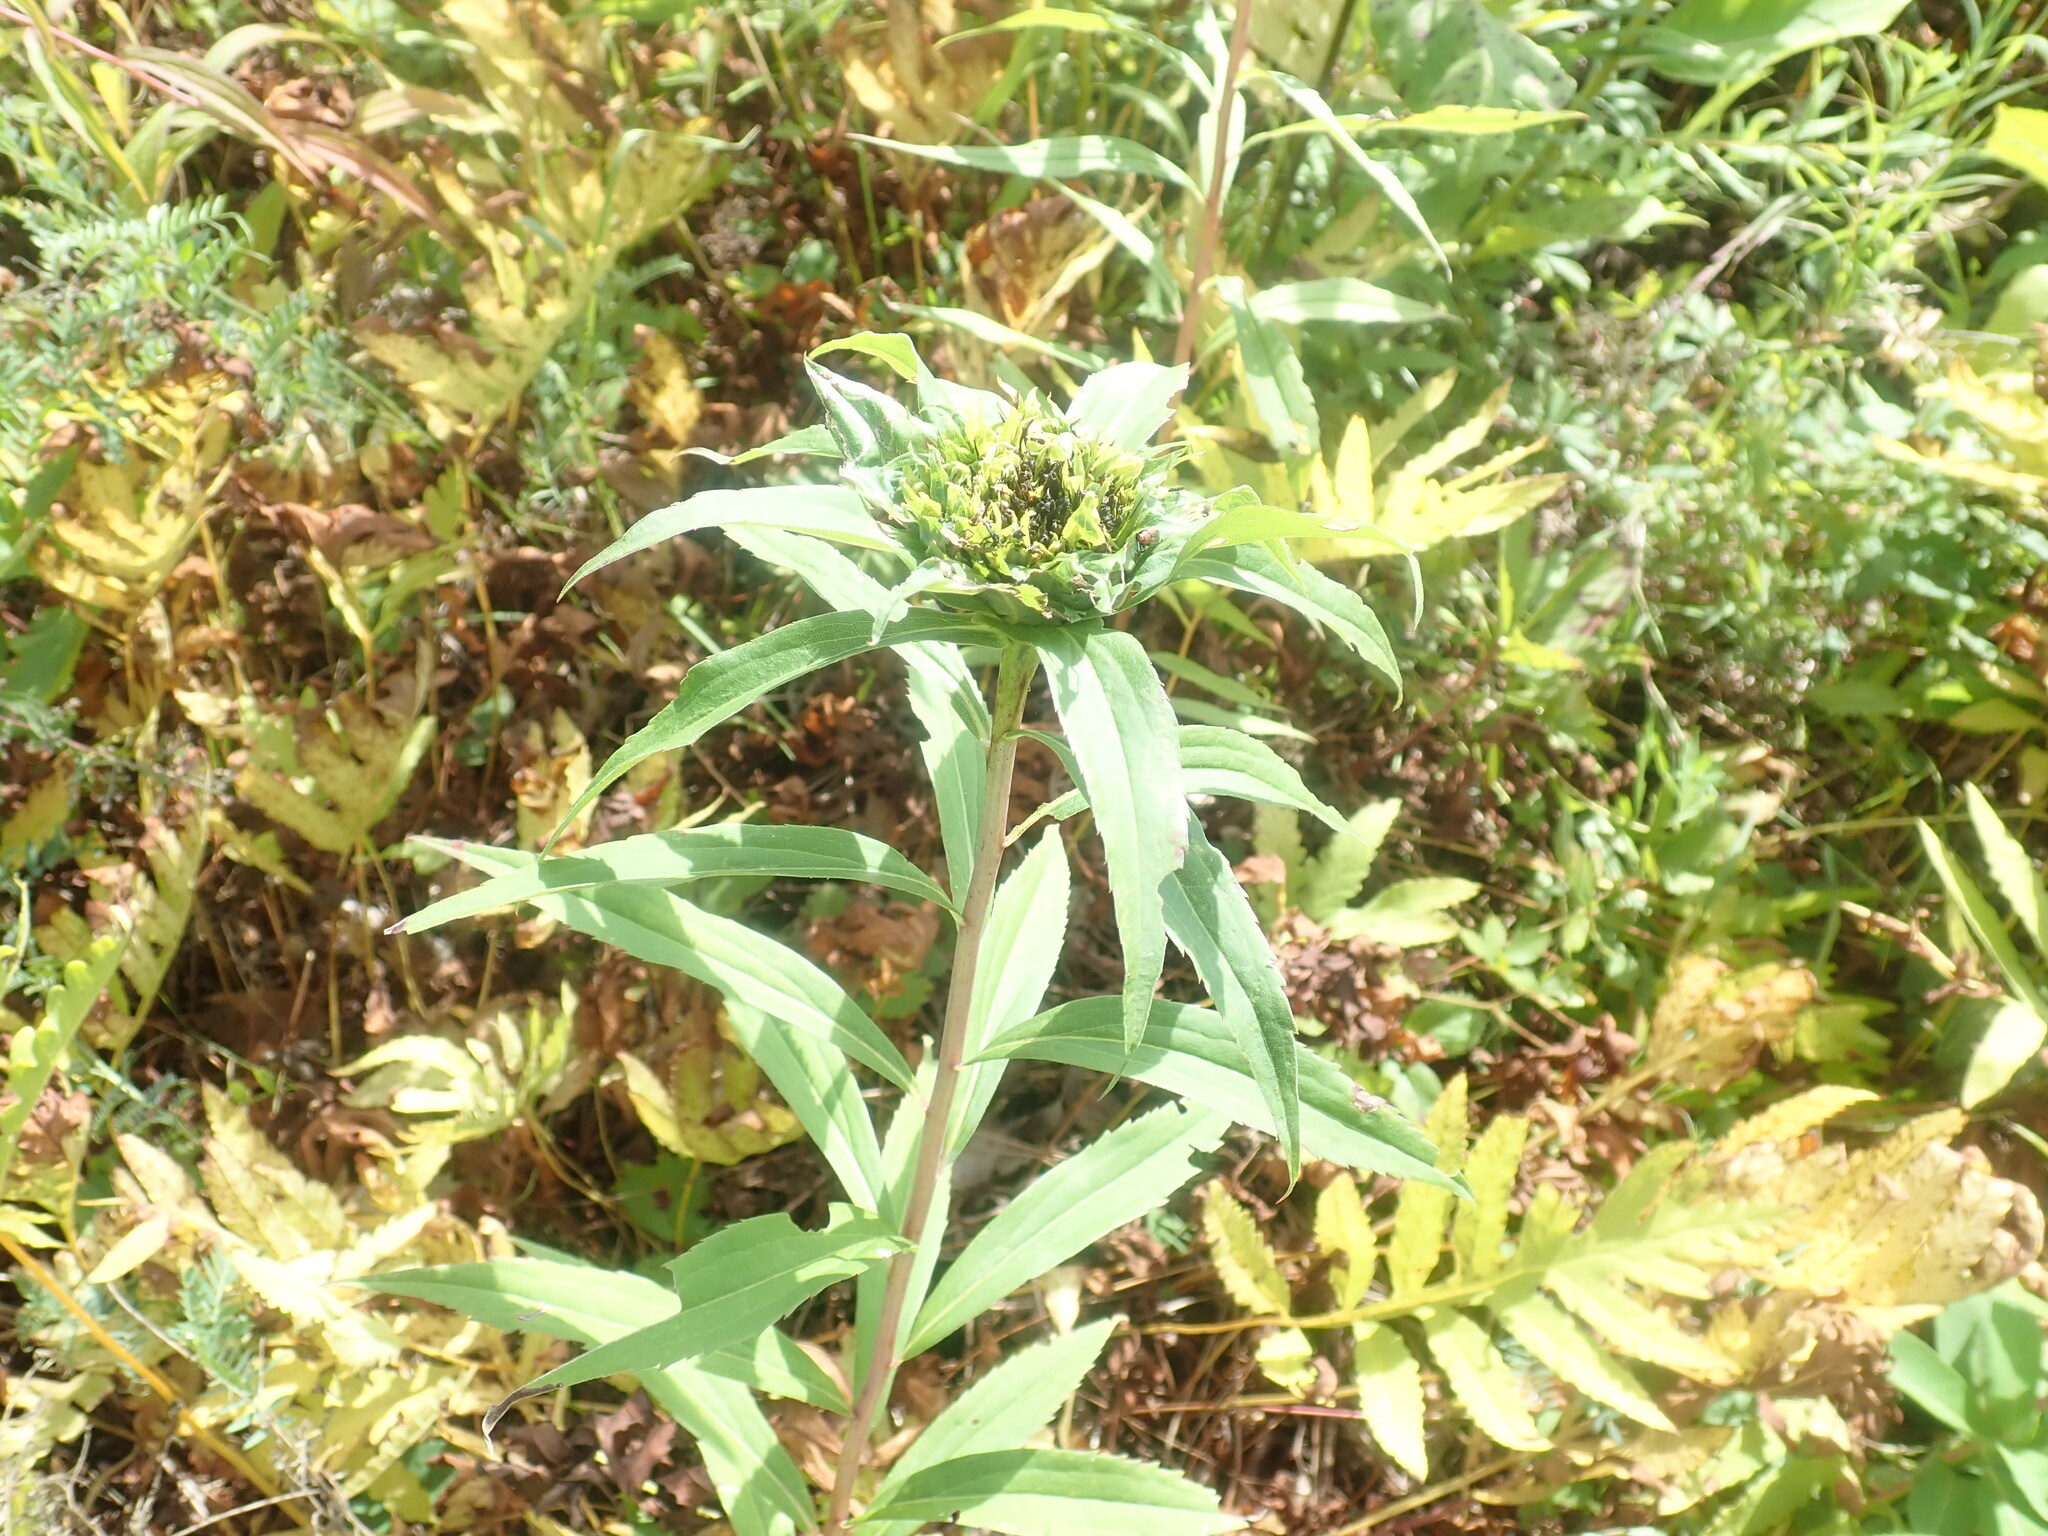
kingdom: Animalia
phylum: Arthropoda
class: Insecta
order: Diptera
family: Cecidomyiidae
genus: Rhopalomyia
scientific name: Rhopalomyia capitata
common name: Giant goldenrod bunch gall midge
